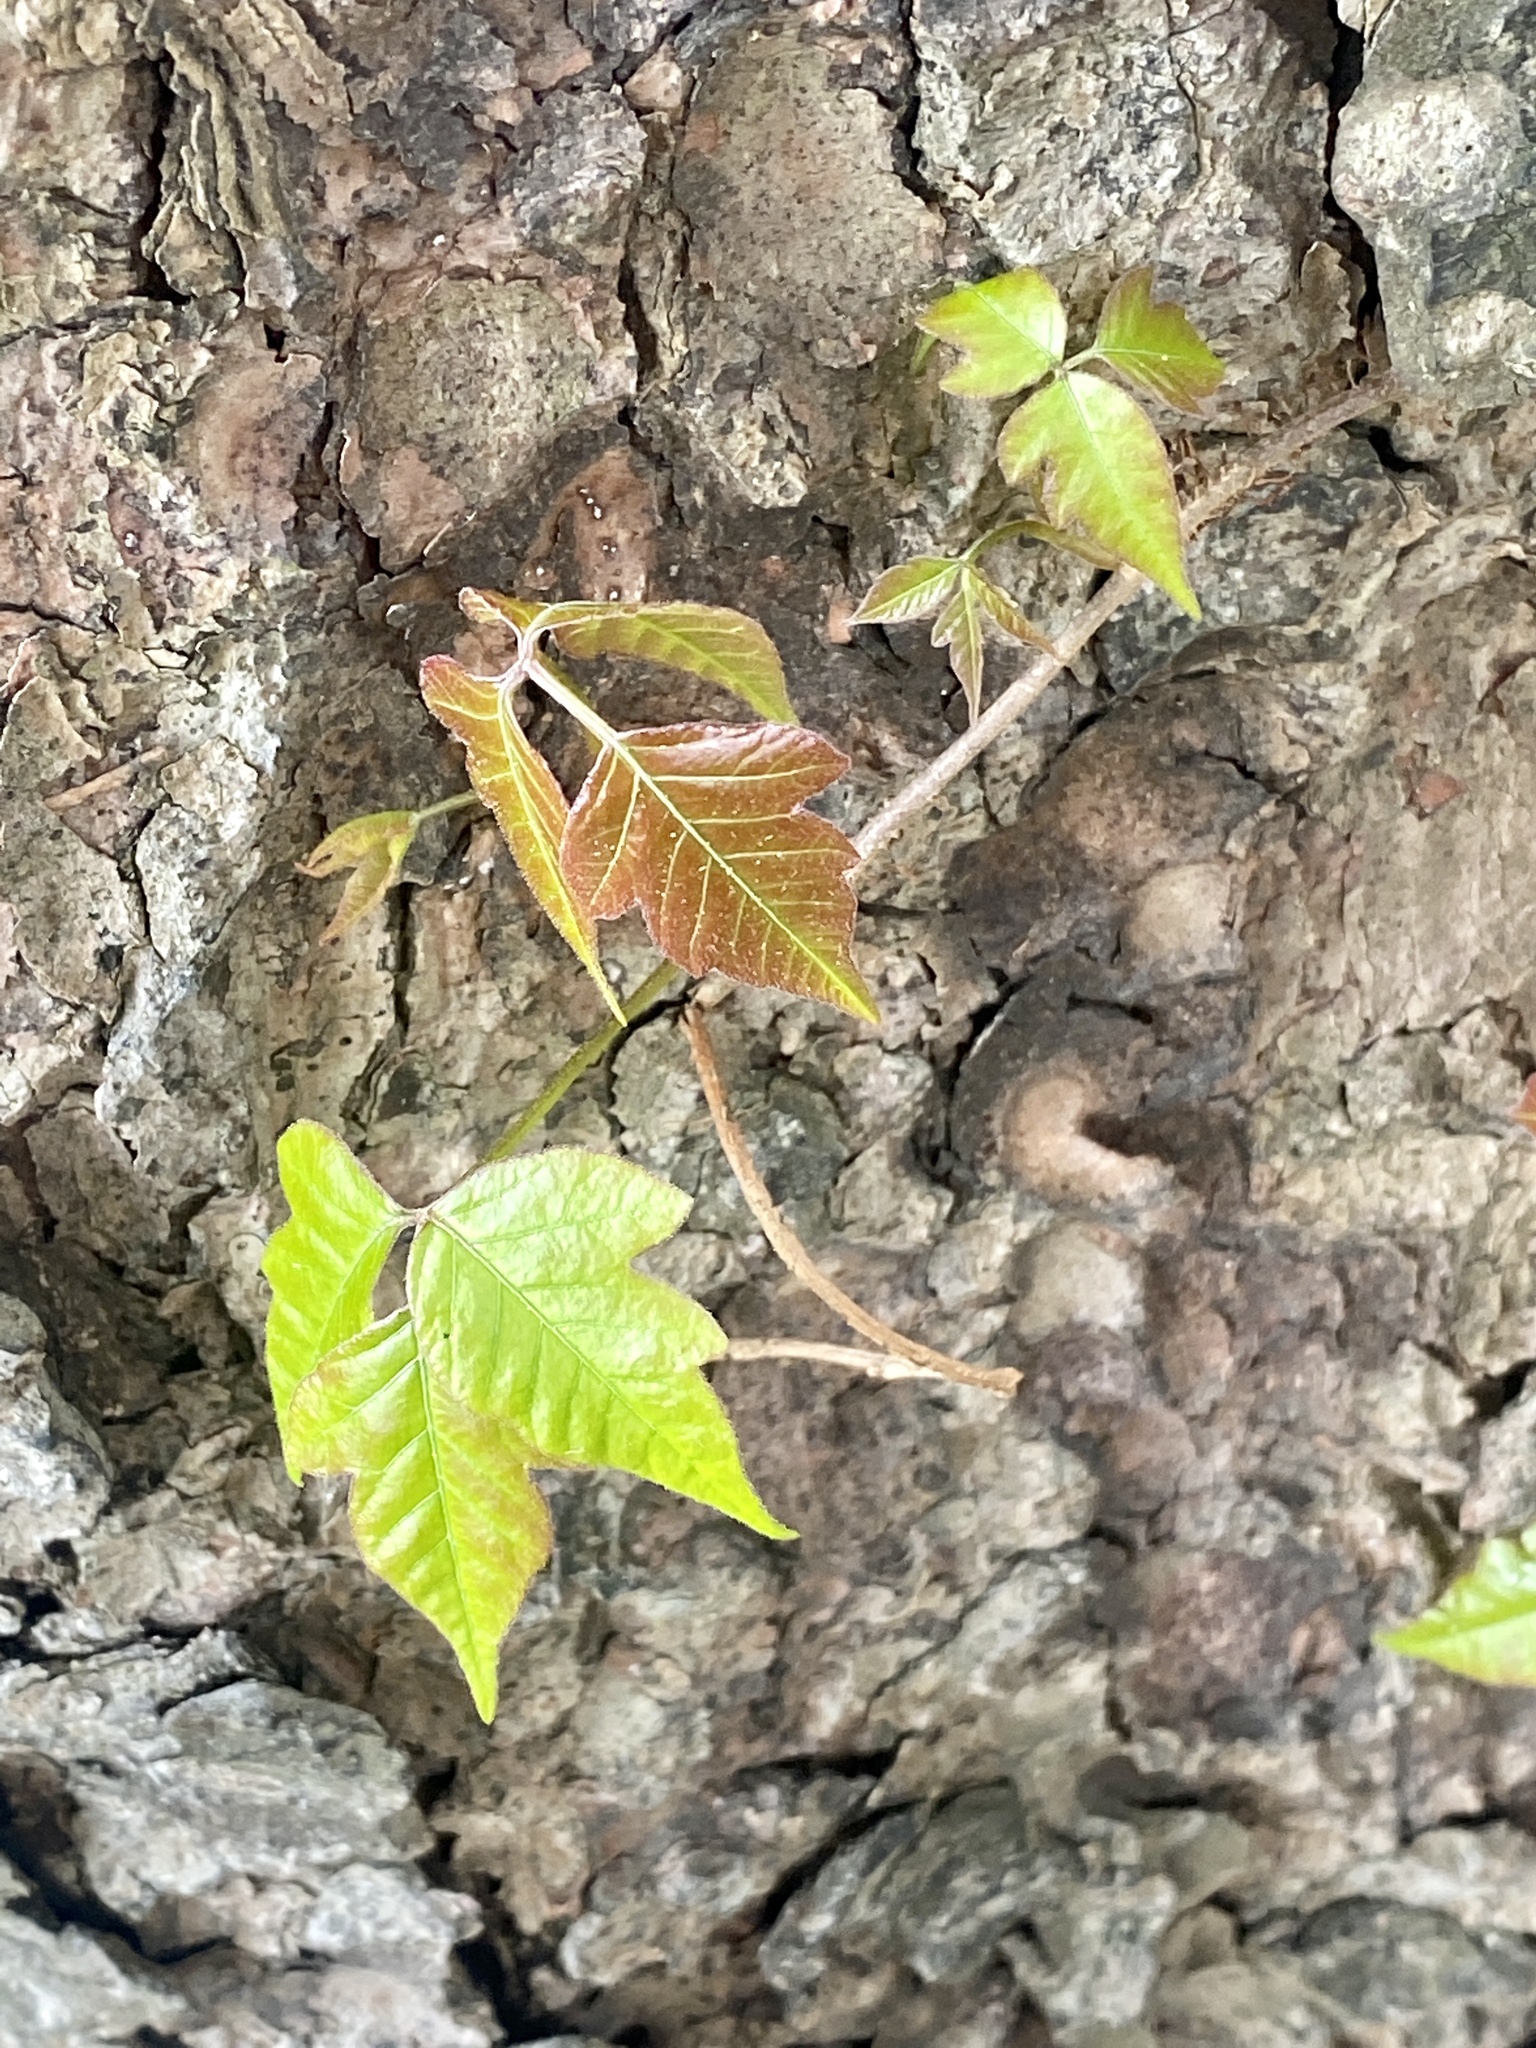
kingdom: Plantae
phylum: Tracheophyta
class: Magnoliopsida
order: Sapindales
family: Anacardiaceae
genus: Toxicodendron
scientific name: Toxicodendron radicans
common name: Poison ivy
